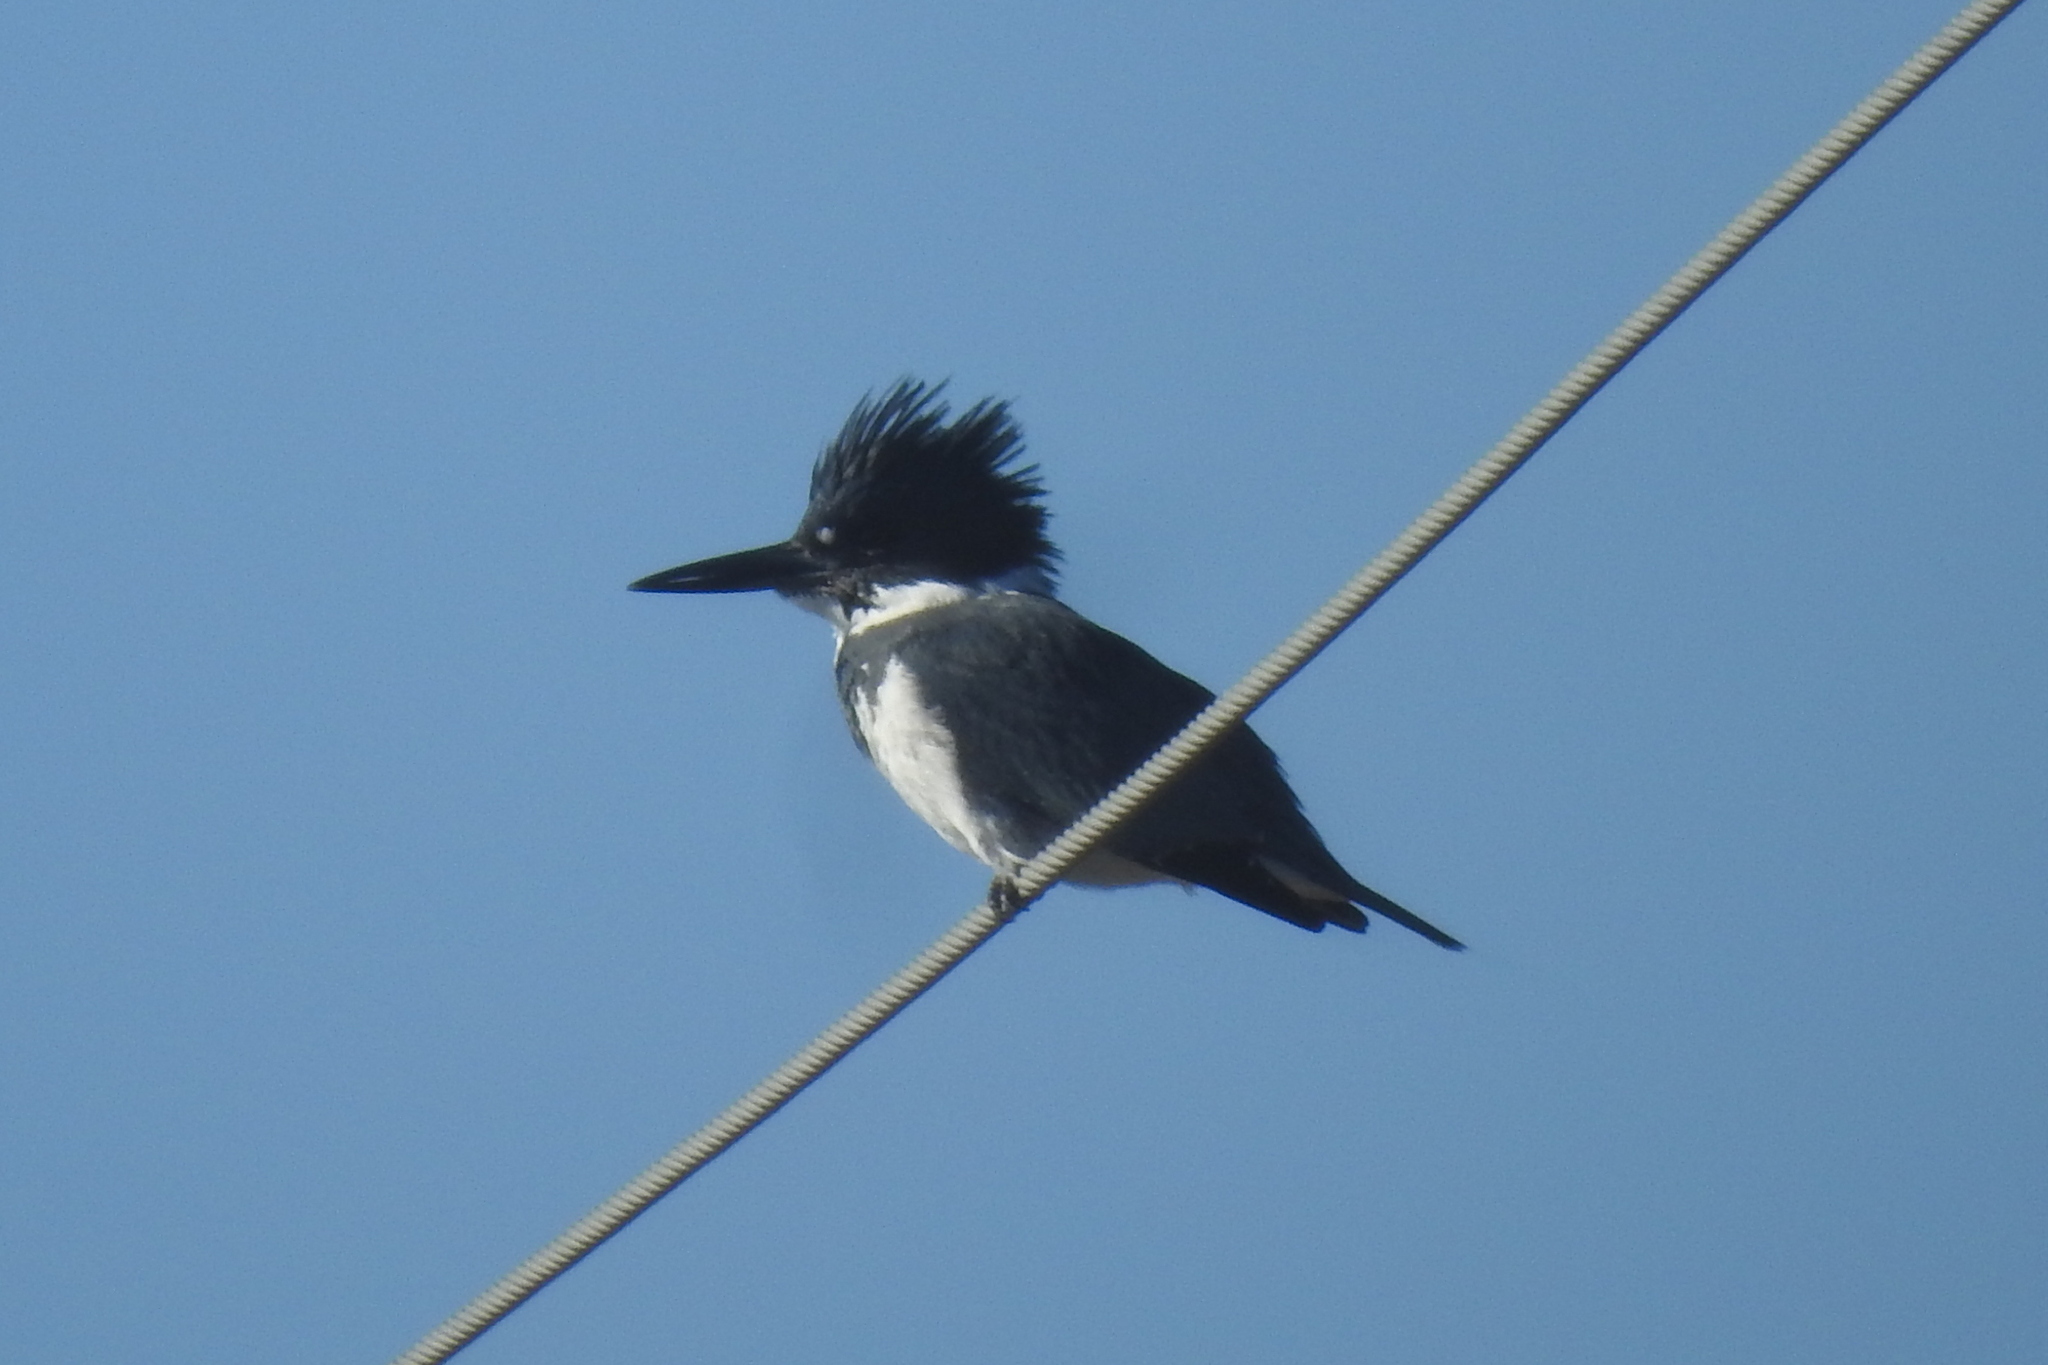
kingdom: Animalia
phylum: Chordata
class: Aves
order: Coraciiformes
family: Alcedinidae
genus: Megaceryle
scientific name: Megaceryle alcyon
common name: Belted kingfisher
